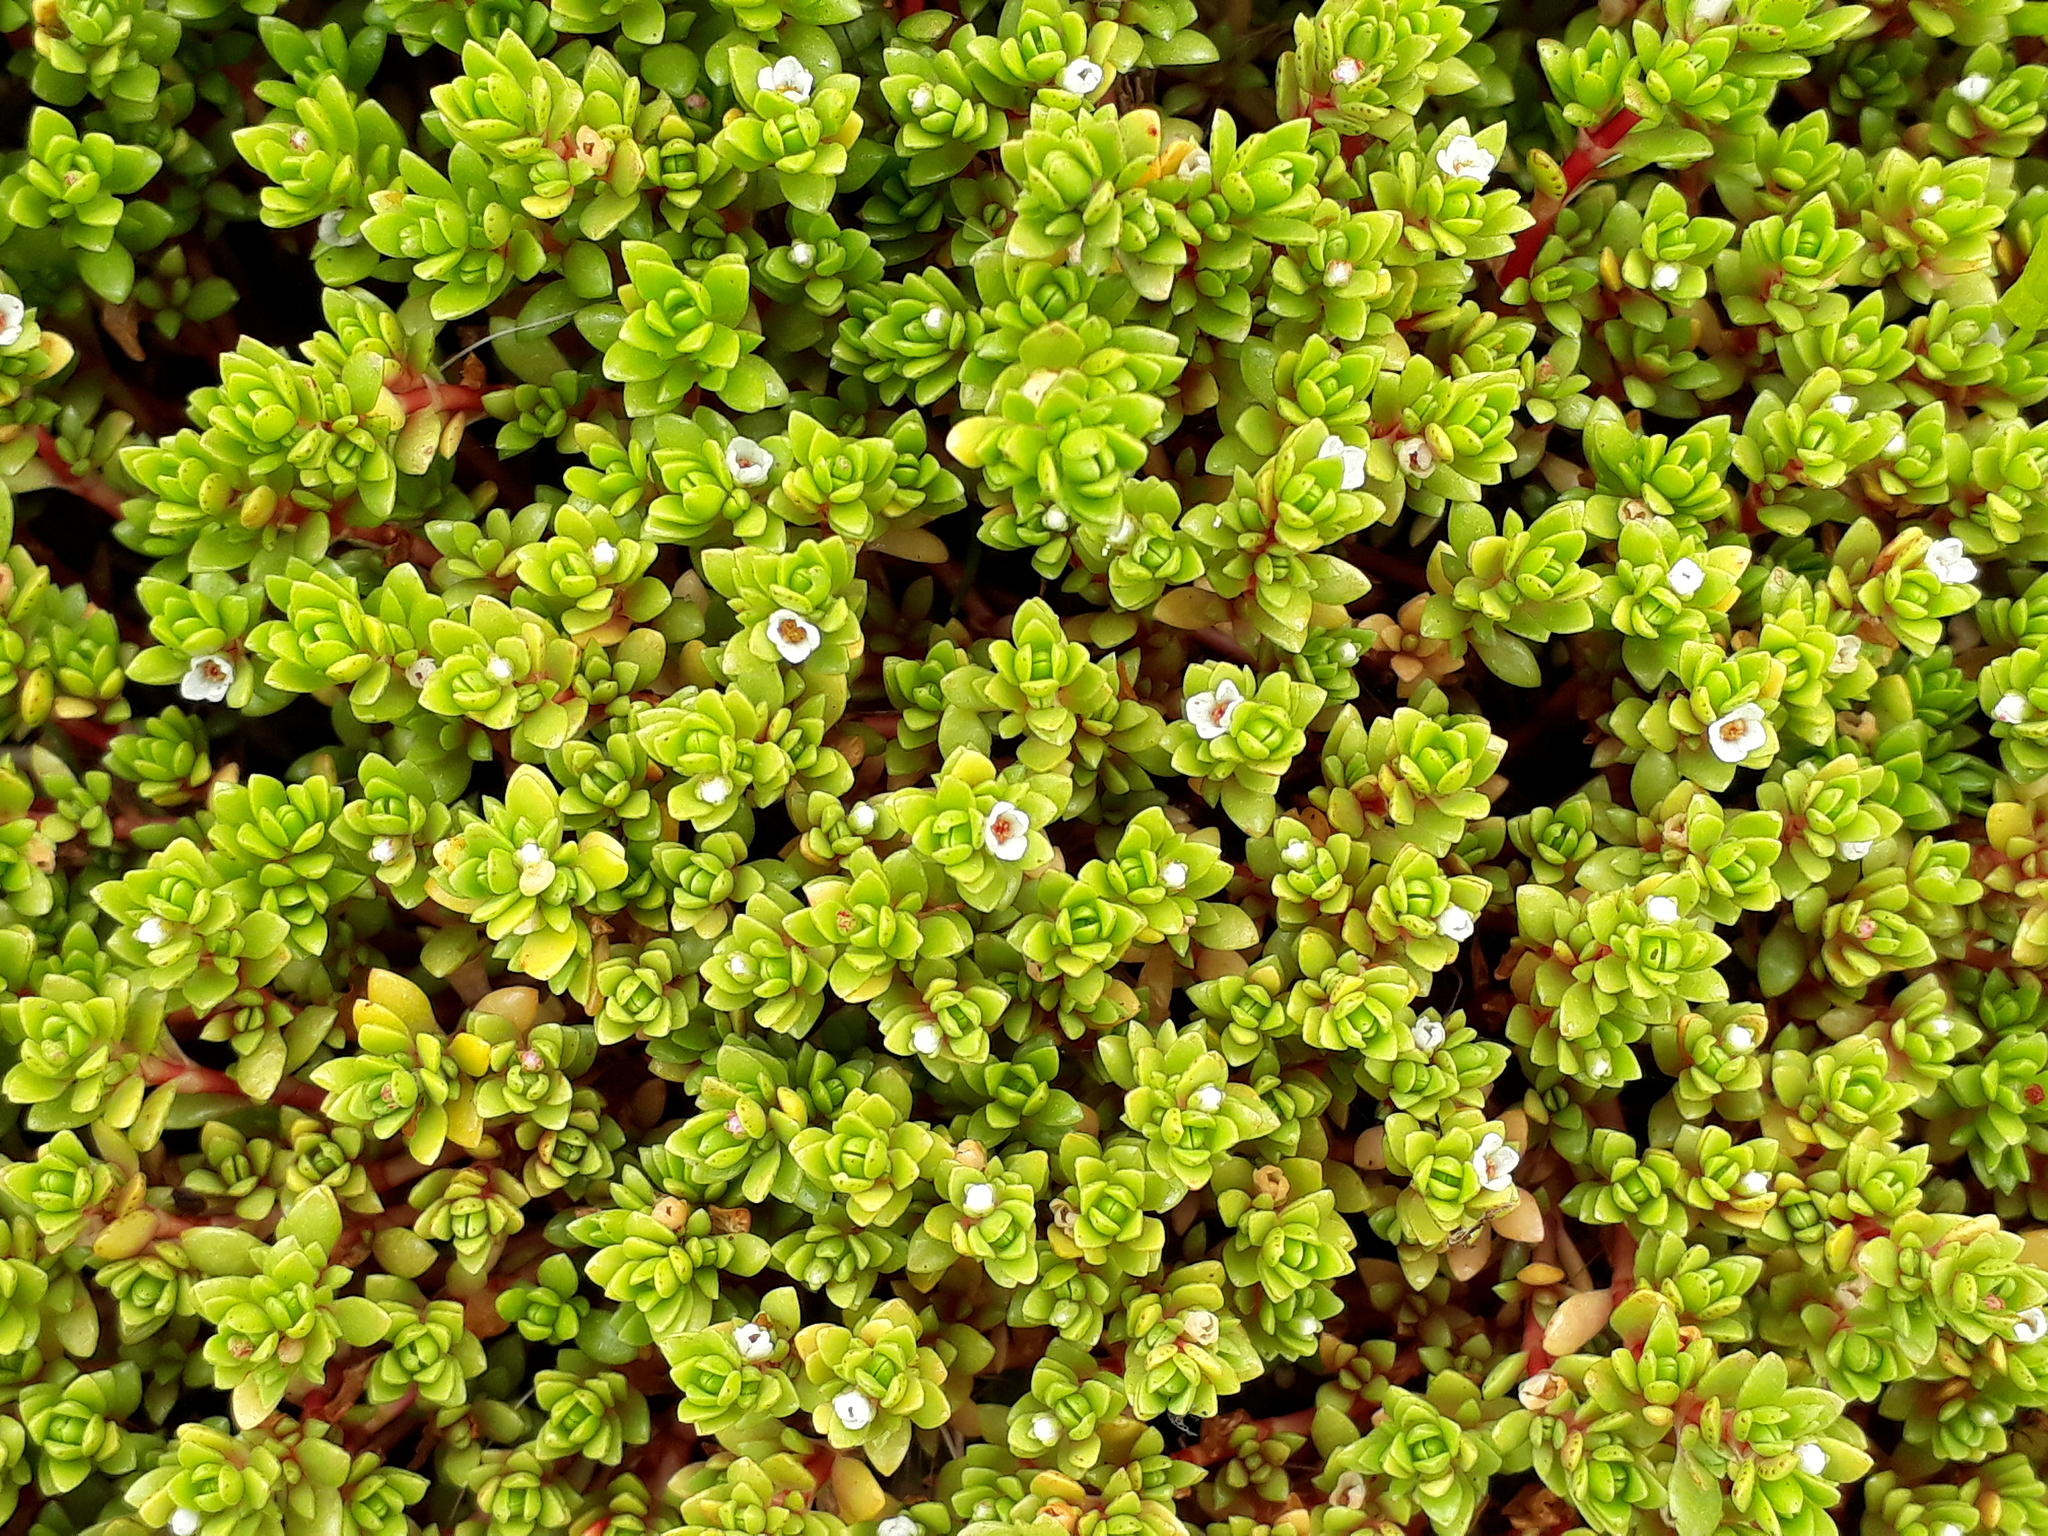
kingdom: Plantae
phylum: Tracheophyta
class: Magnoliopsida
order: Saxifragales
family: Crassulaceae
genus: Crassula
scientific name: Crassula moschata
